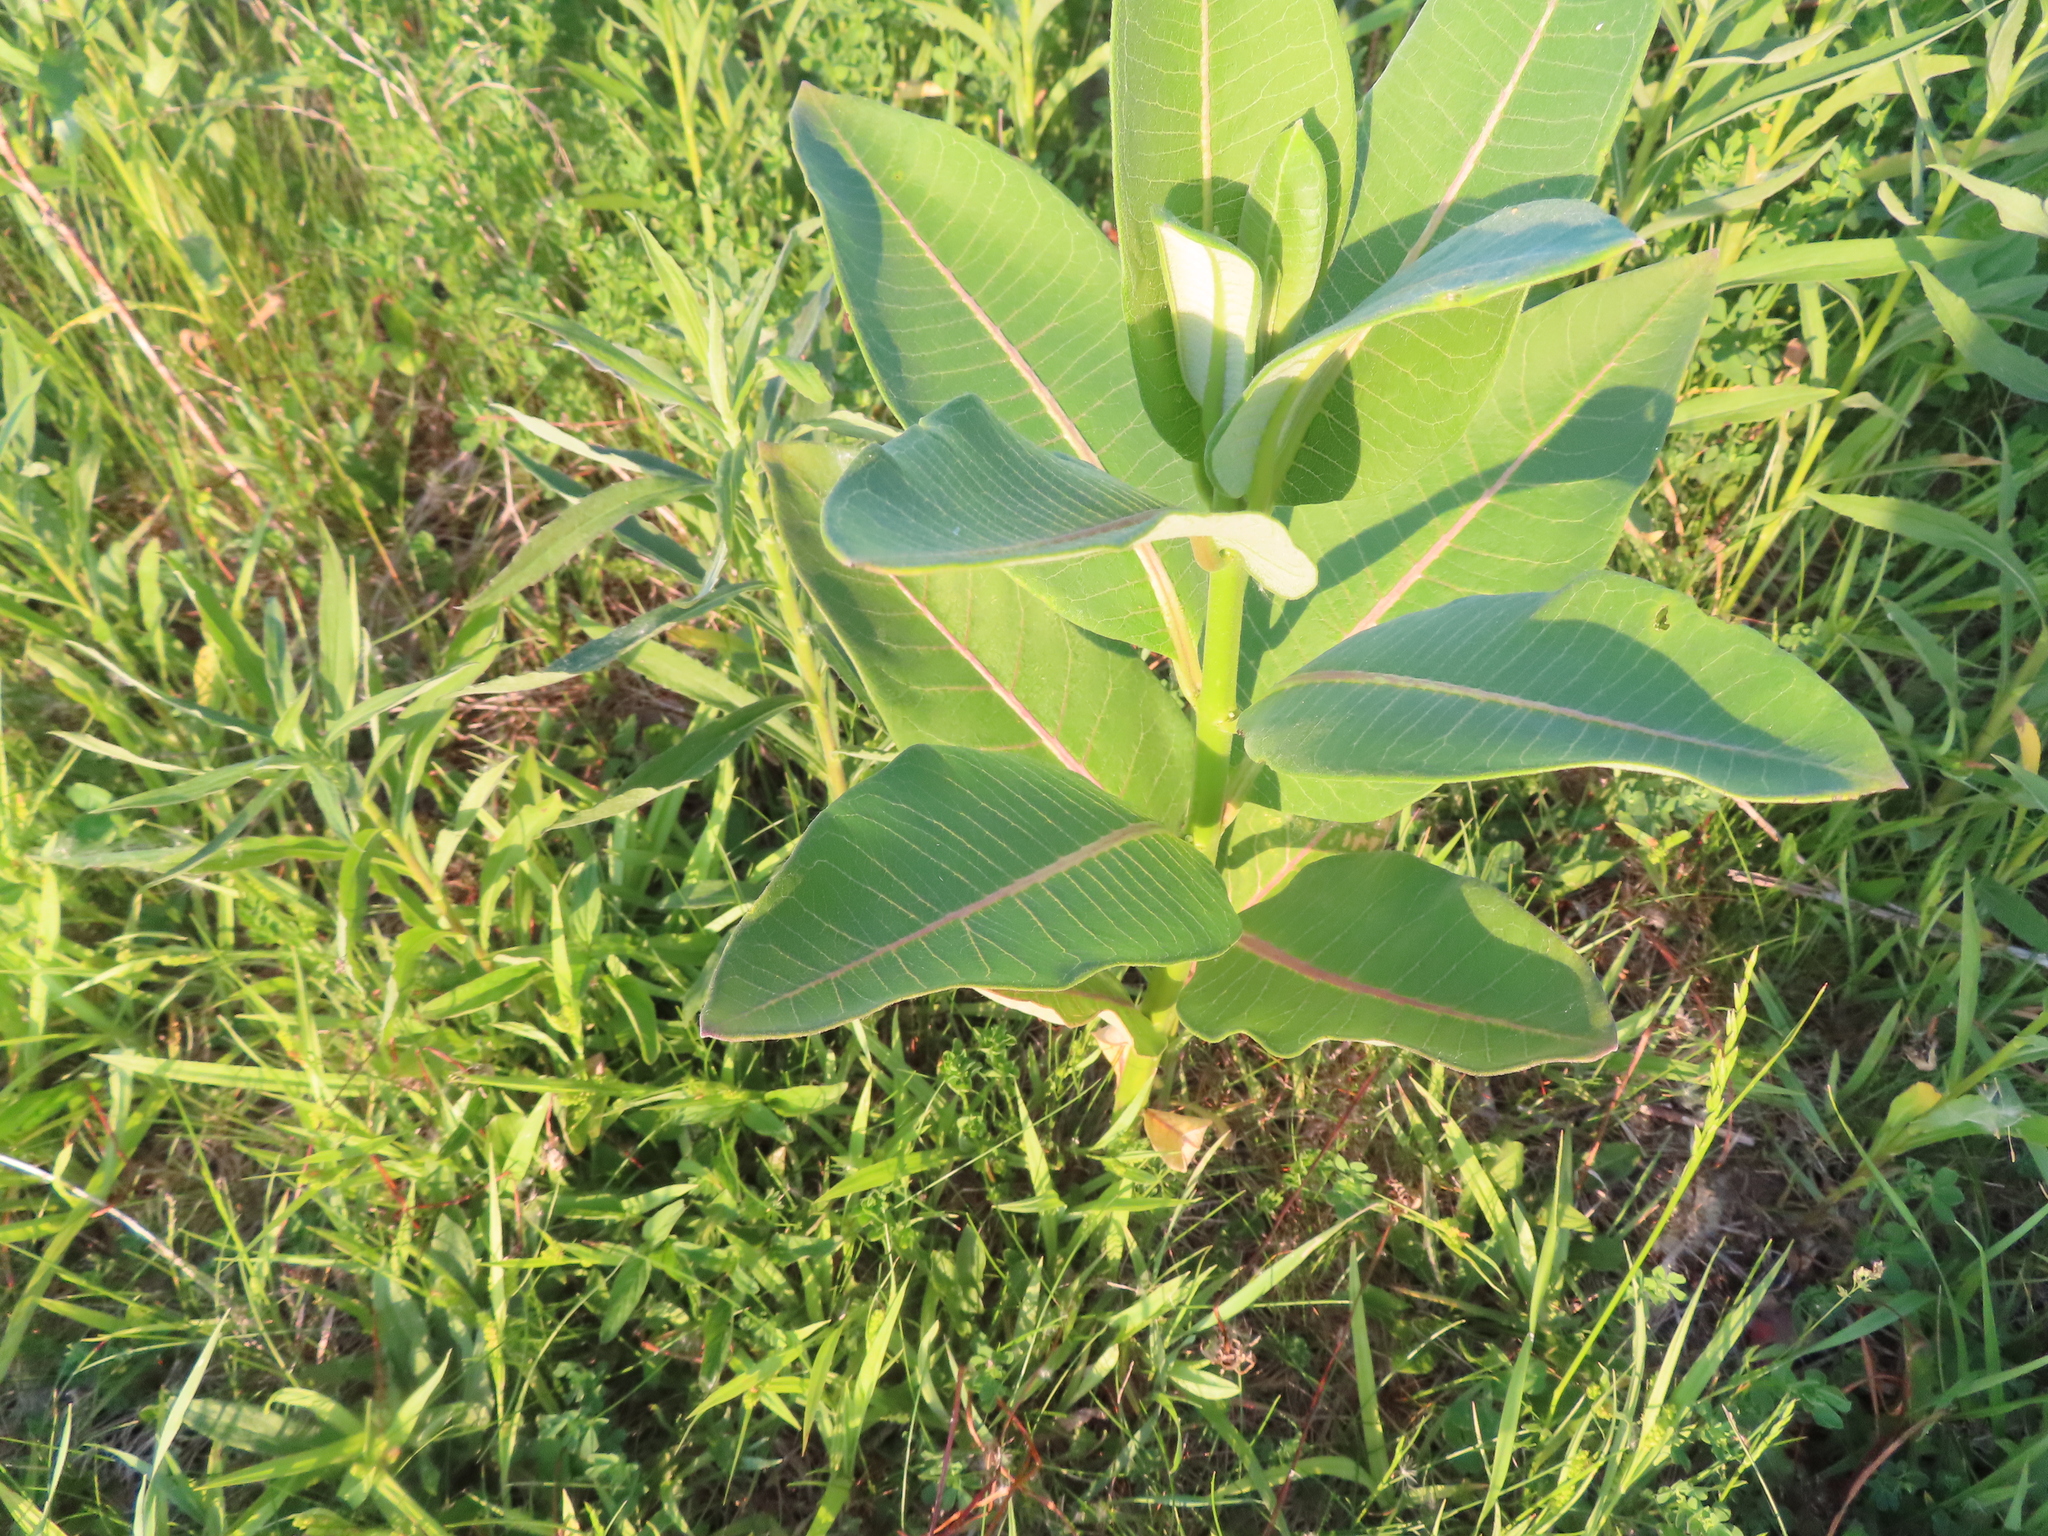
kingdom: Plantae
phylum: Tracheophyta
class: Magnoliopsida
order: Gentianales
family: Apocynaceae
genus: Asclepias
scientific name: Asclepias syriaca
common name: Common milkweed
